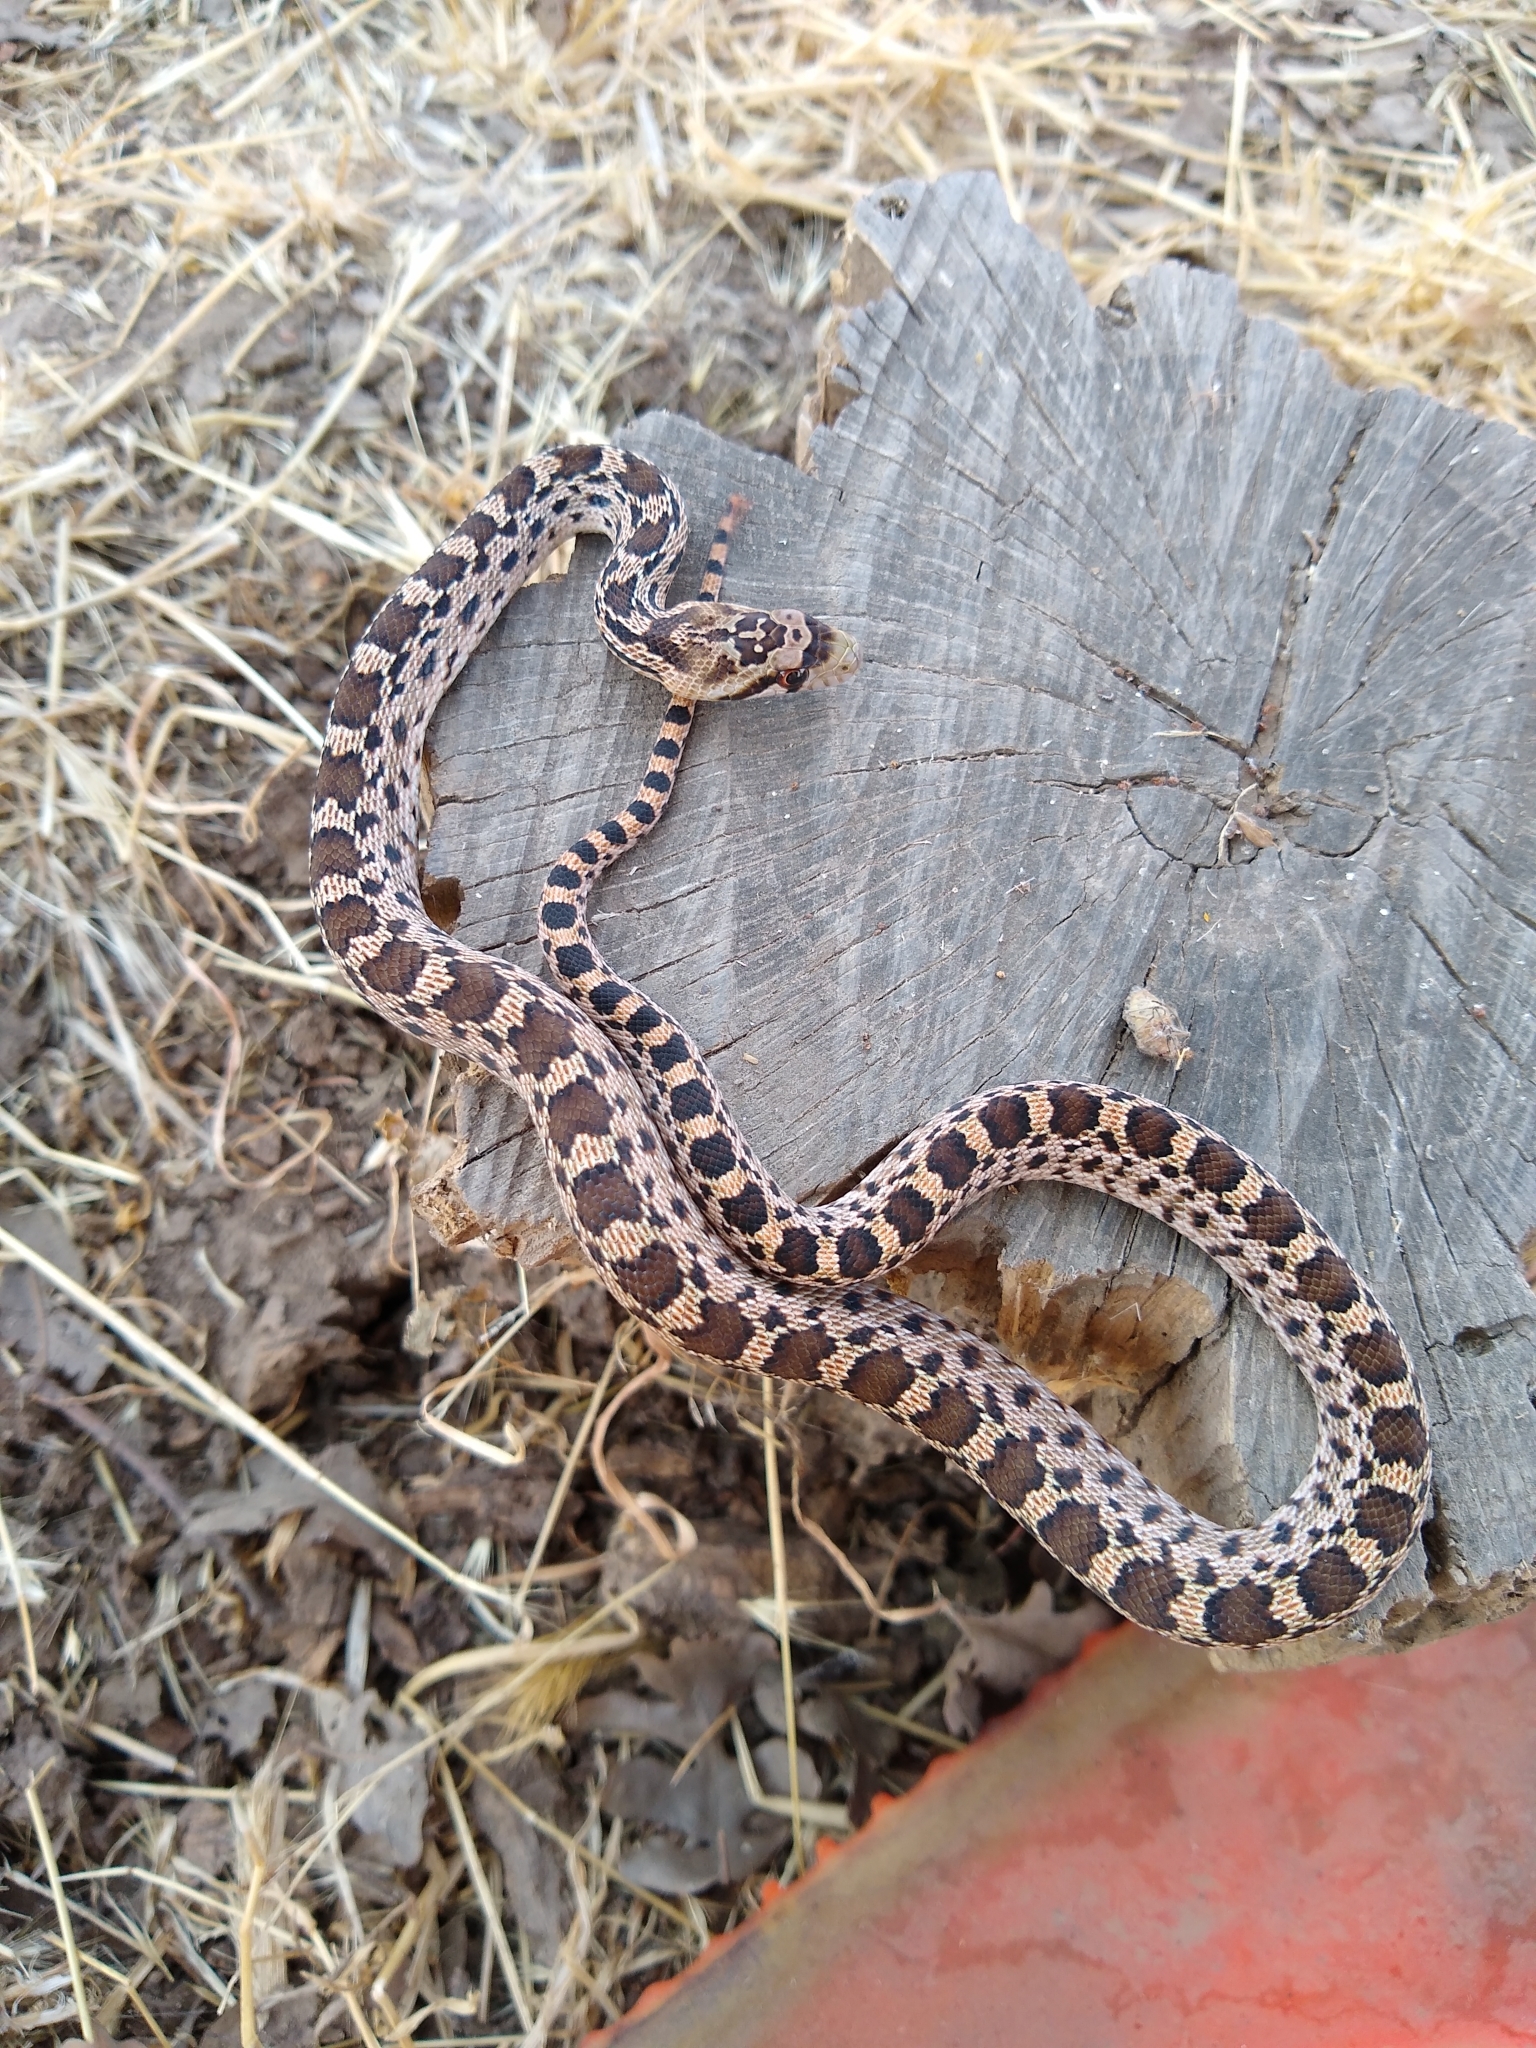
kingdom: Animalia
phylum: Chordata
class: Squamata
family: Colubridae
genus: Pituophis
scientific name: Pituophis catenifer
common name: Gopher snake
